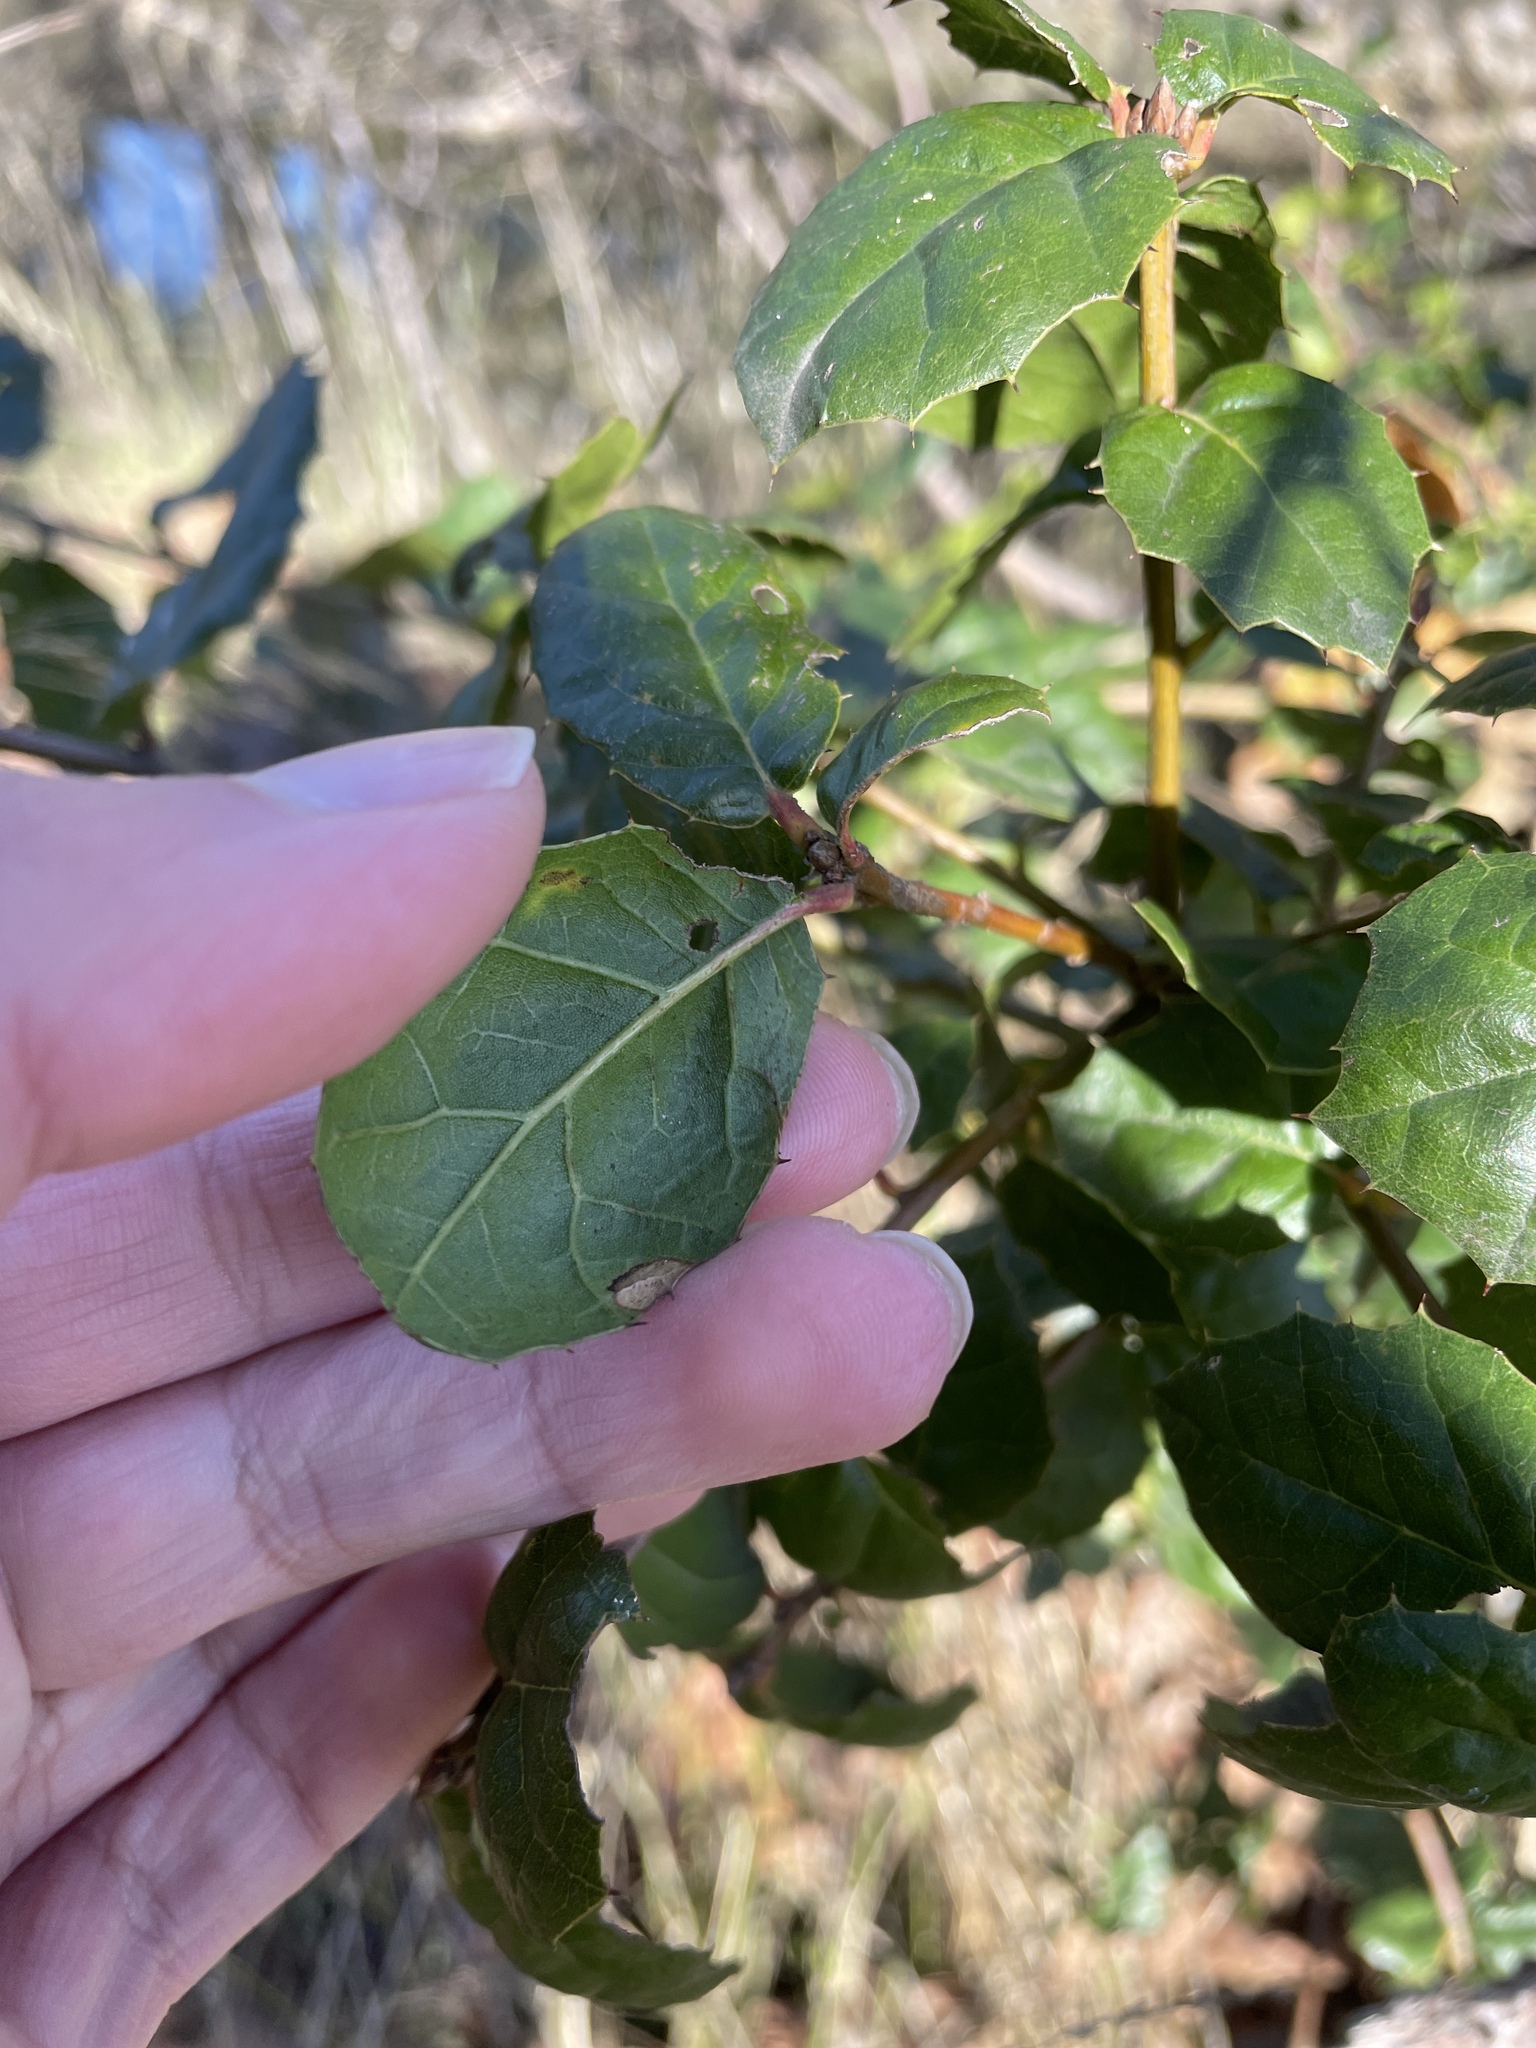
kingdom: Plantae
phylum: Tracheophyta
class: Magnoliopsida
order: Fagales
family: Fagaceae
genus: Quercus
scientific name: Quercus agrifolia
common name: California live oak
